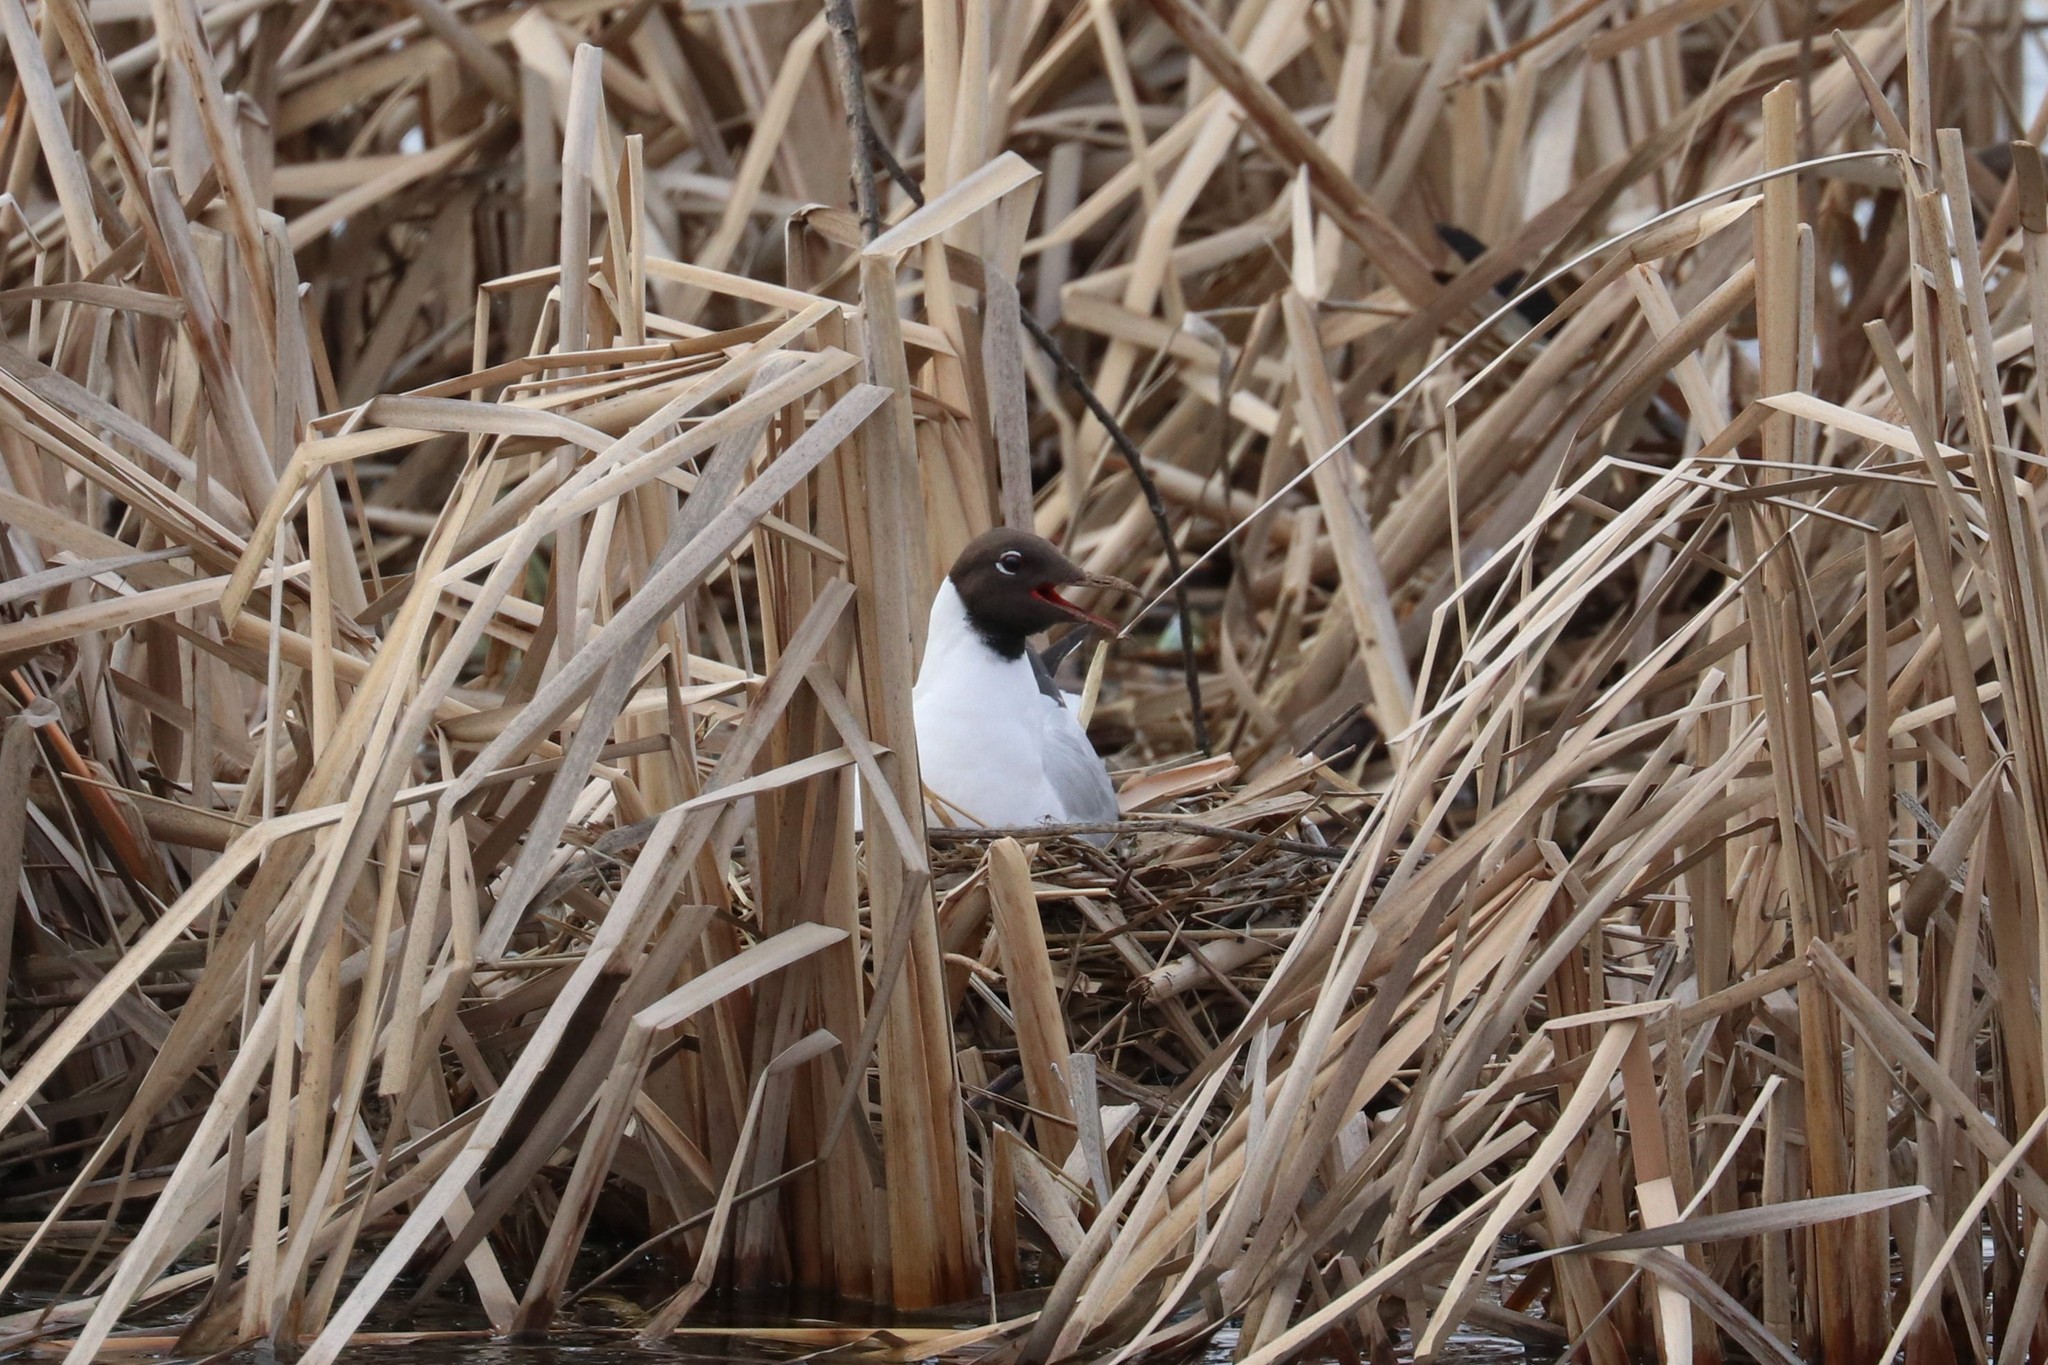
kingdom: Animalia
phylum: Chordata
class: Aves
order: Charadriiformes
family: Laridae
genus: Chroicocephalus
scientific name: Chroicocephalus ridibundus
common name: Black-headed gull
